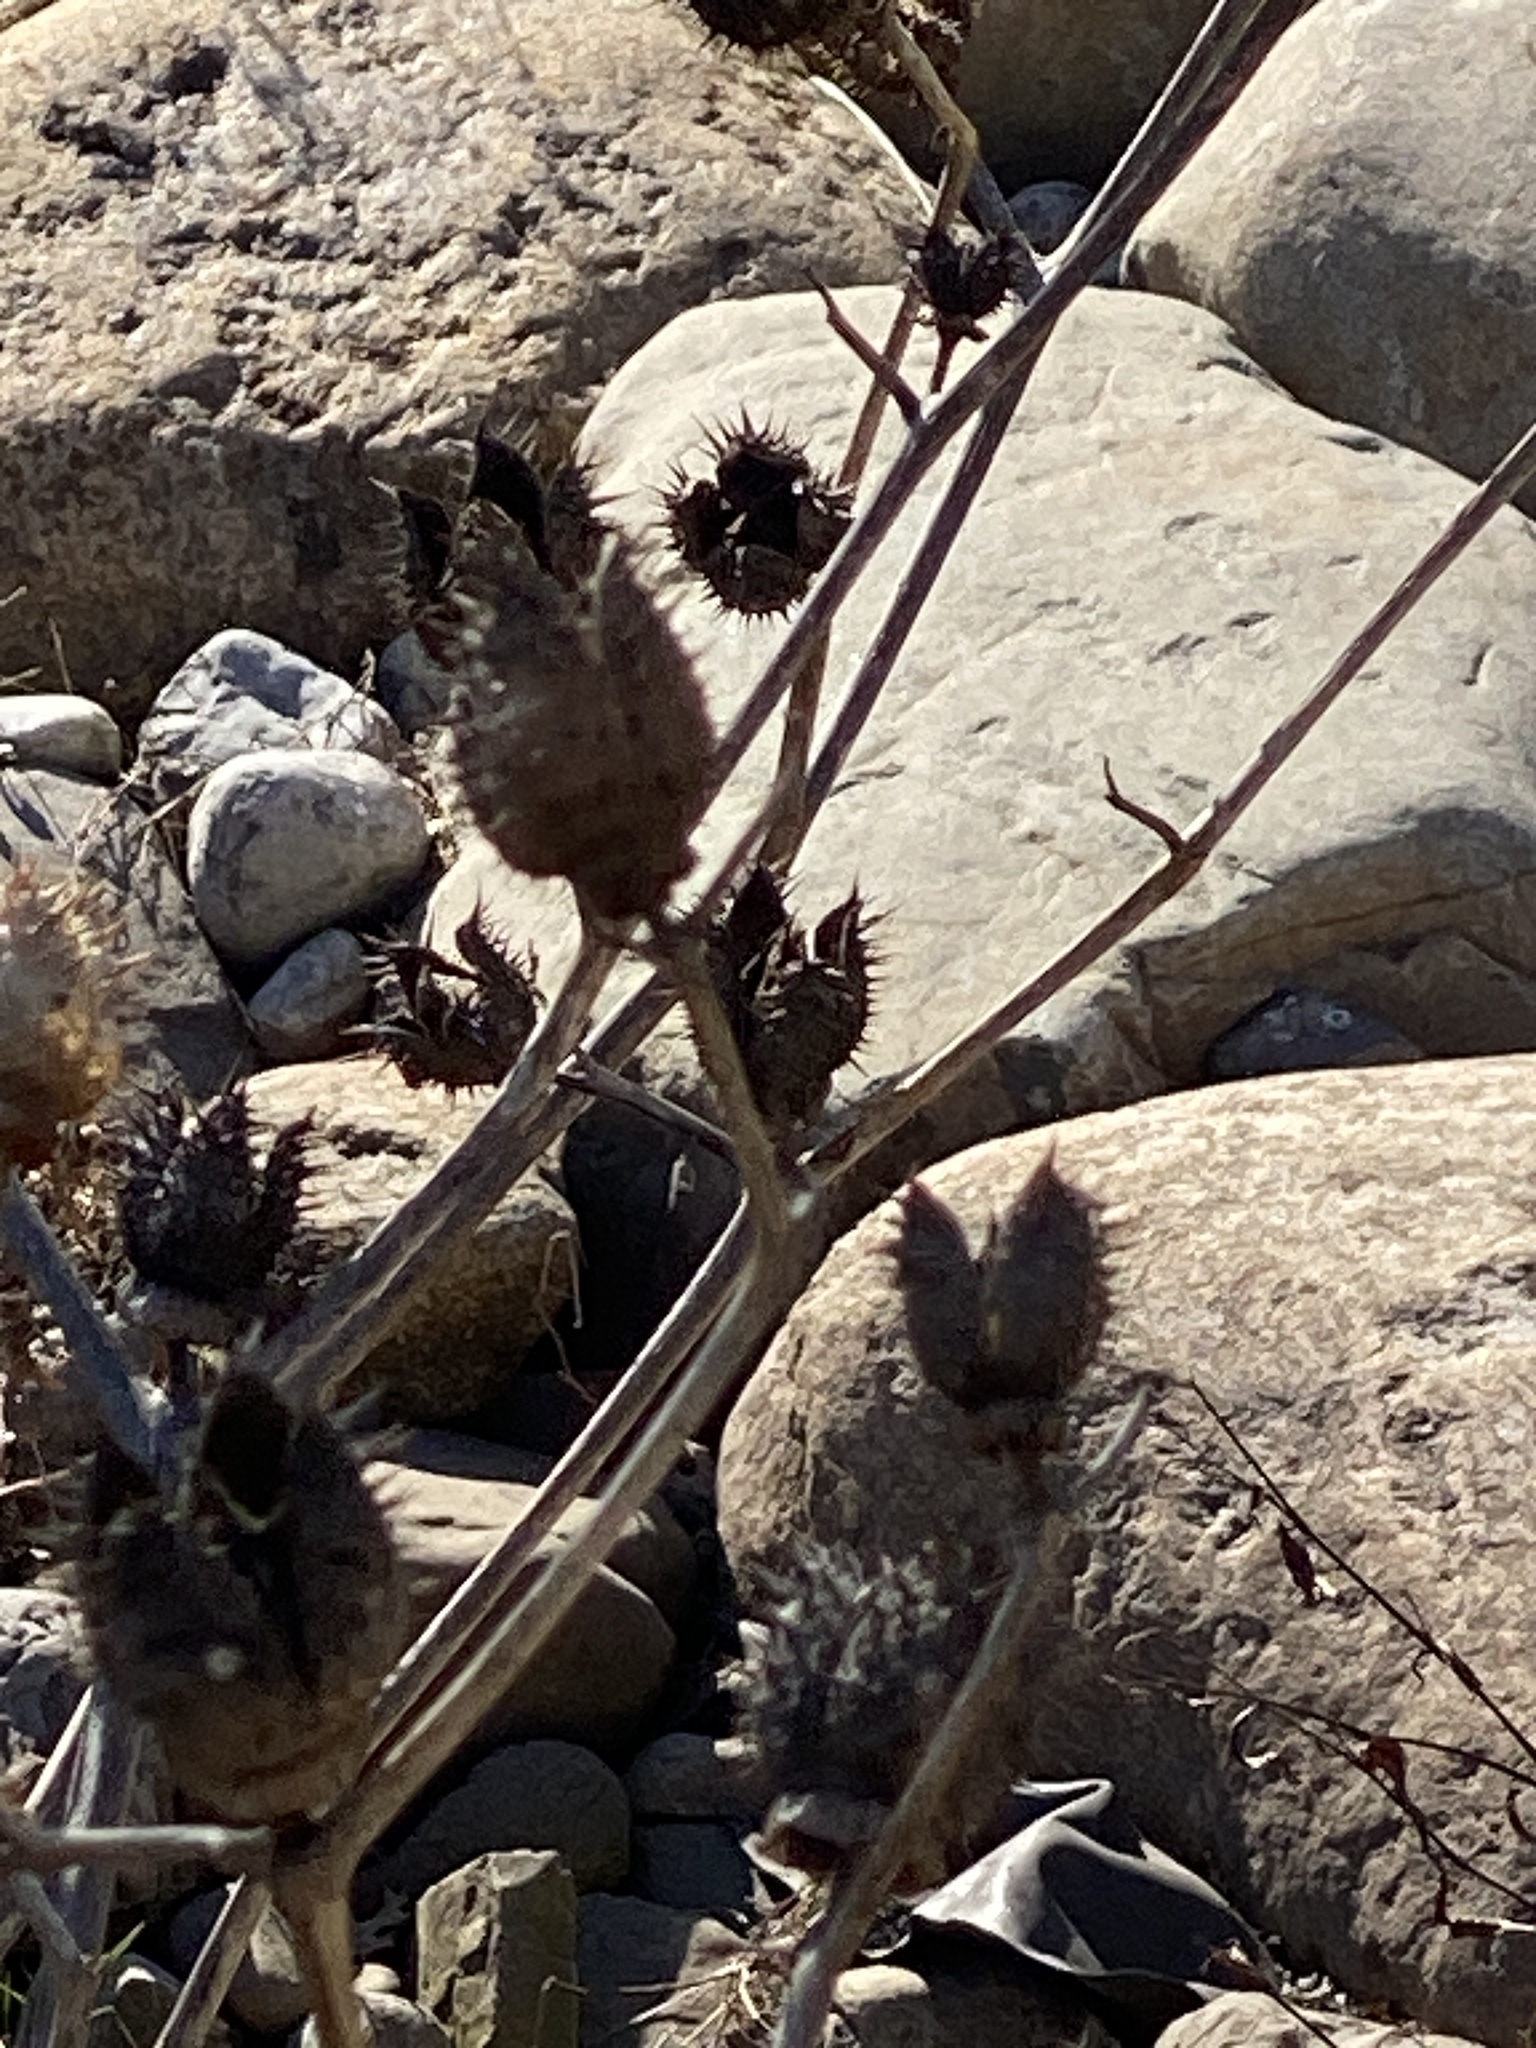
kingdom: Plantae
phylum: Tracheophyta
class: Magnoliopsida
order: Solanales
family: Solanaceae
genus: Datura
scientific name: Datura stramonium
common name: Thorn-apple
